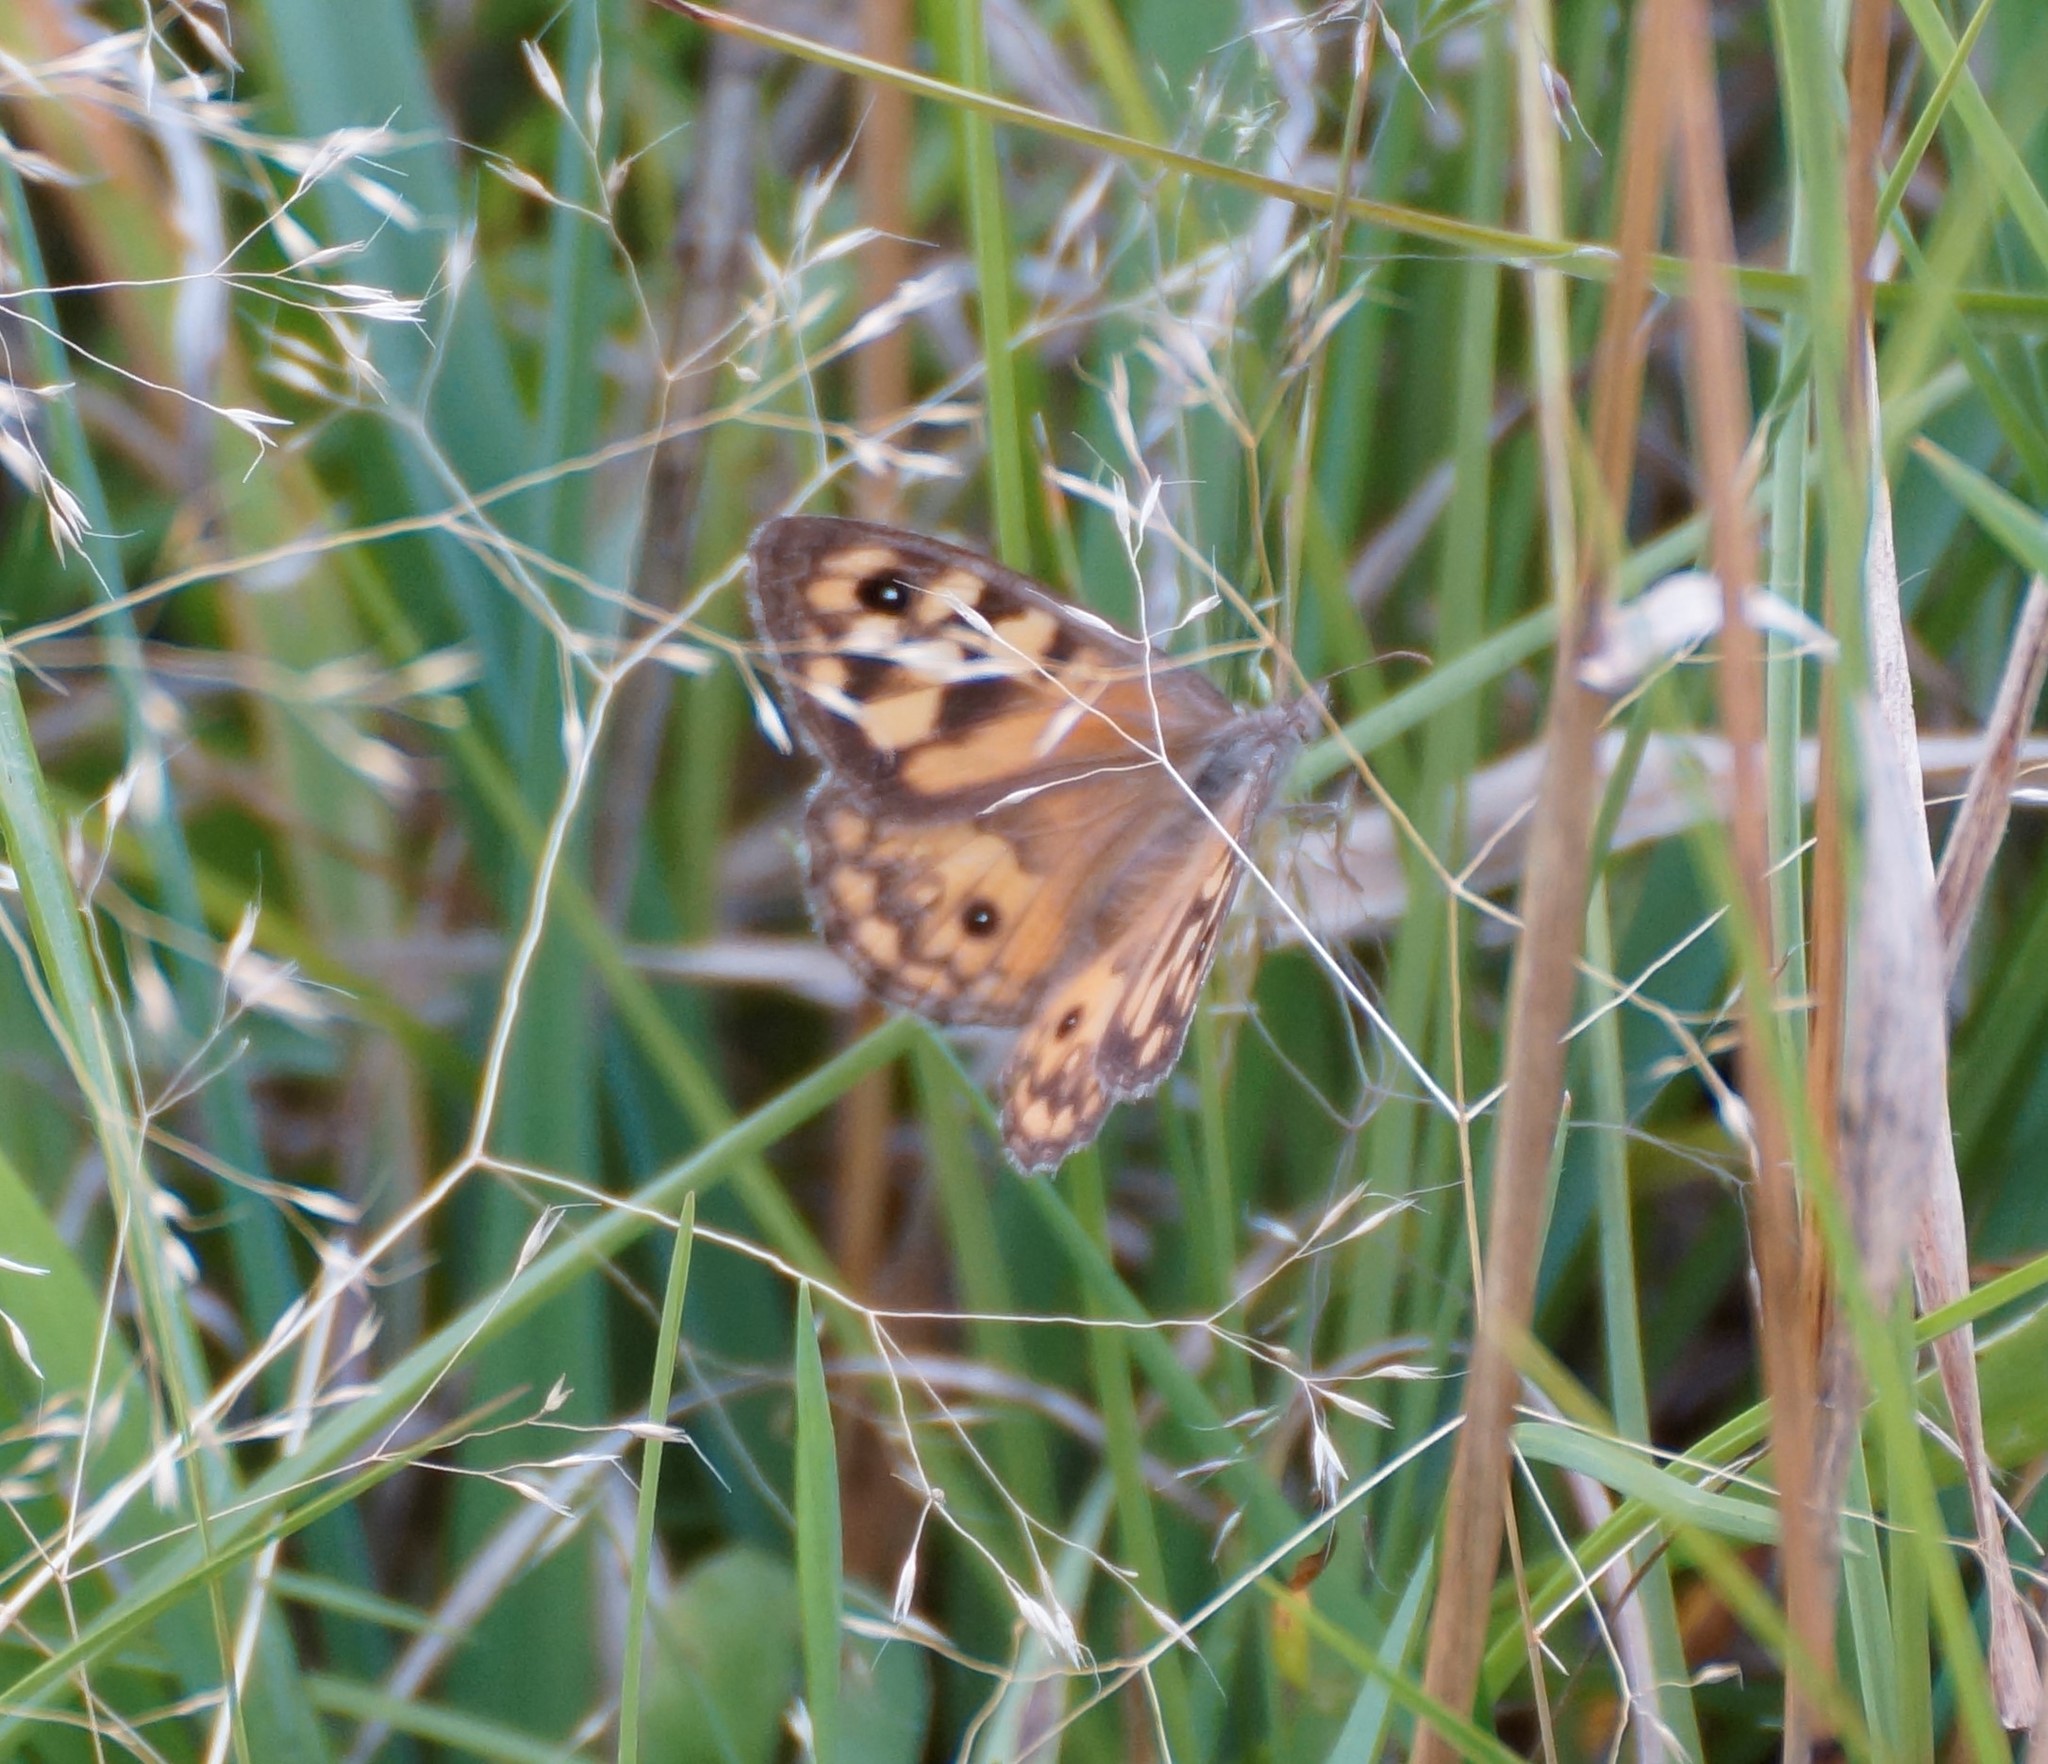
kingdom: Animalia
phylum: Arthropoda
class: Insecta
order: Lepidoptera
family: Nymphalidae
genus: Geitoneura
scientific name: Geitoneura klugii
